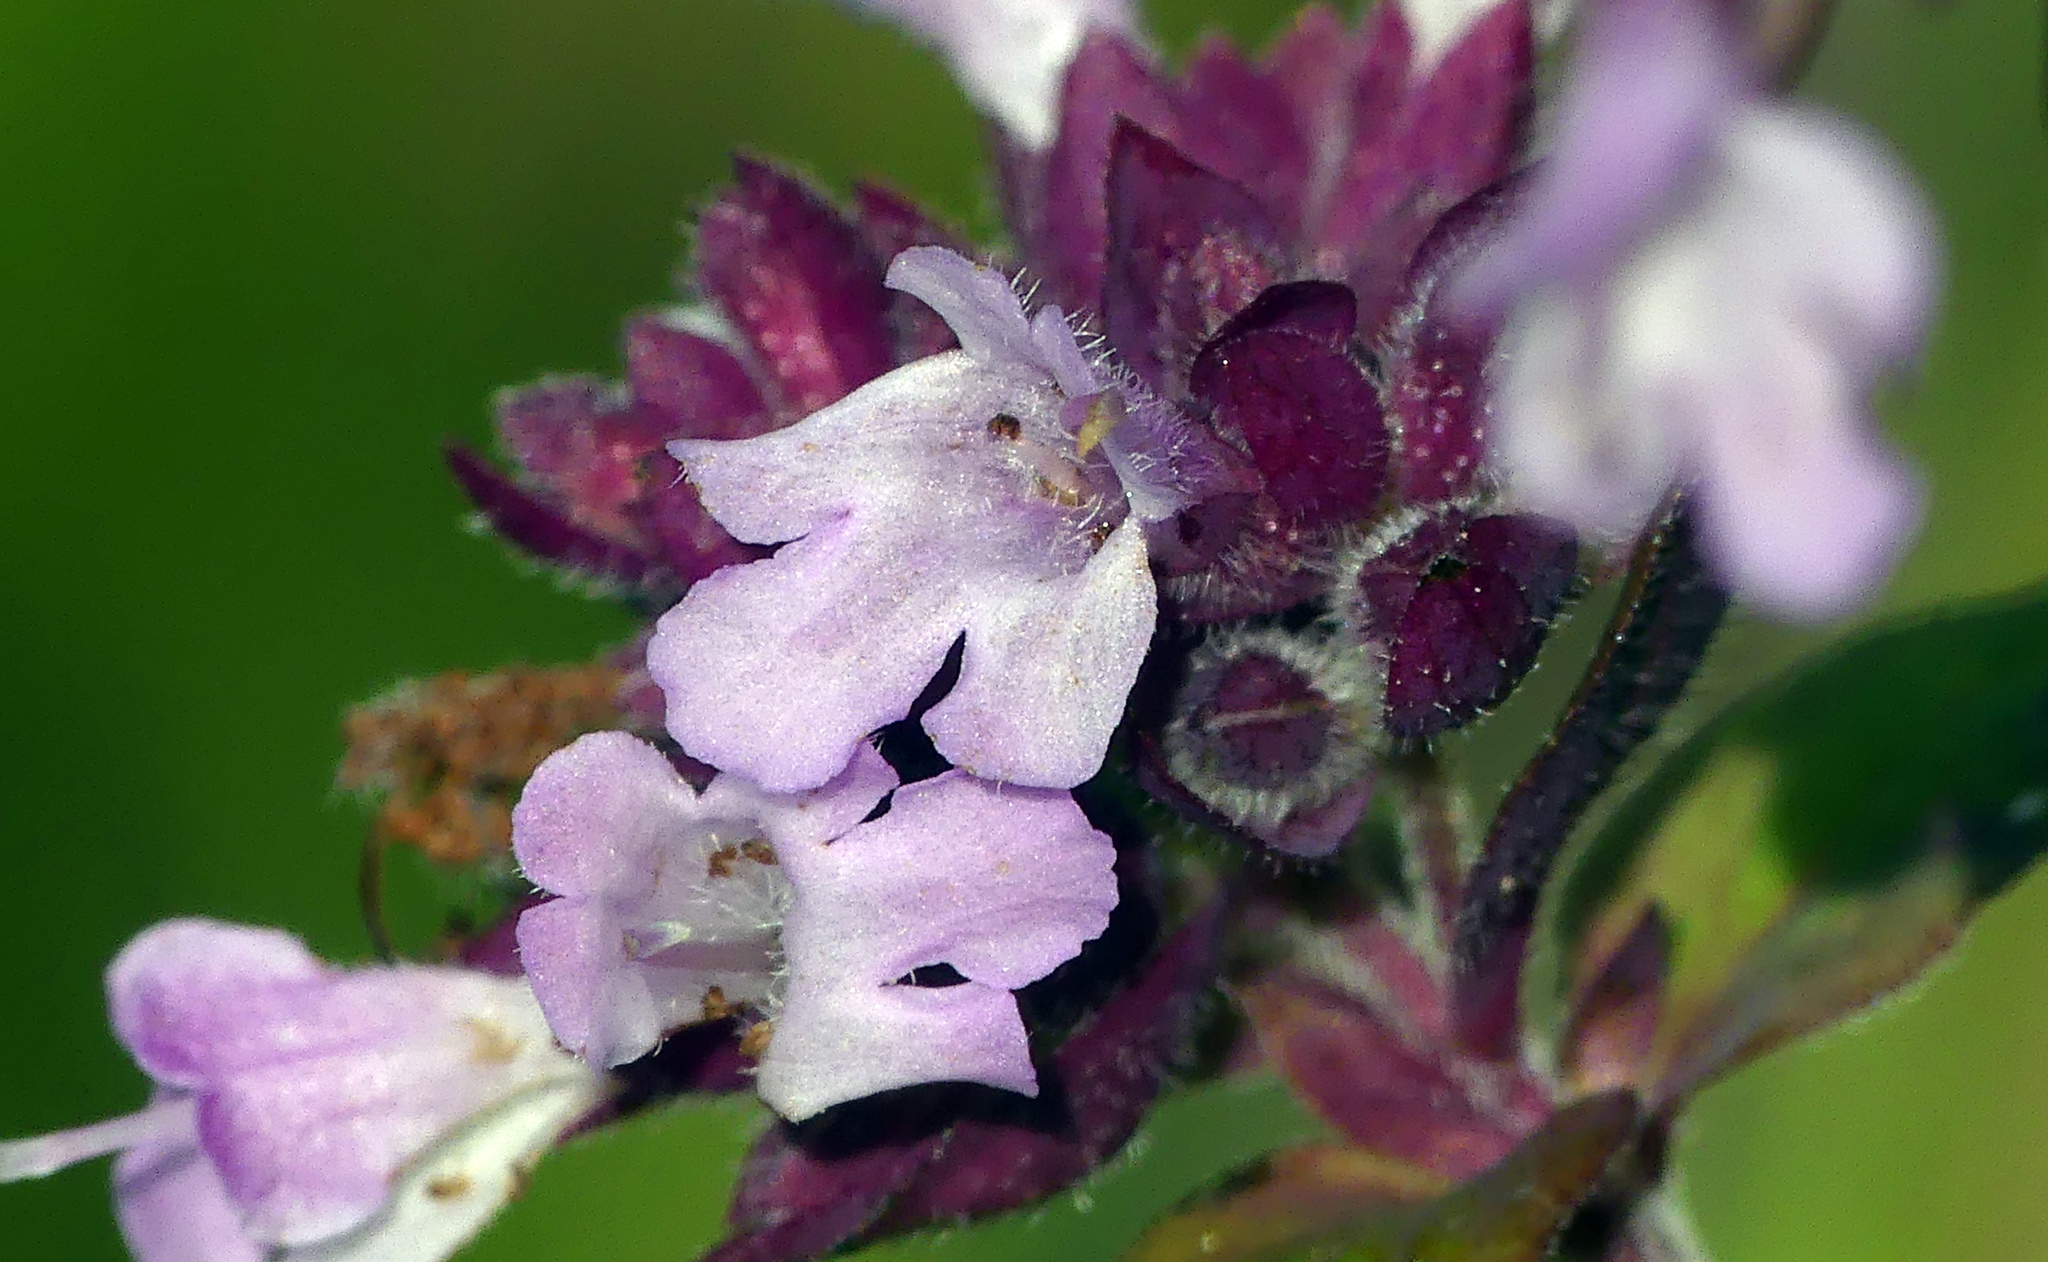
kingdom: Plantae
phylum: Tracheophyta
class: Magnoliopsida
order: Lamiales
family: Lamiaceae
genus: Origanum
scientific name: Origanum vulgare
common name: Wild marjoram
